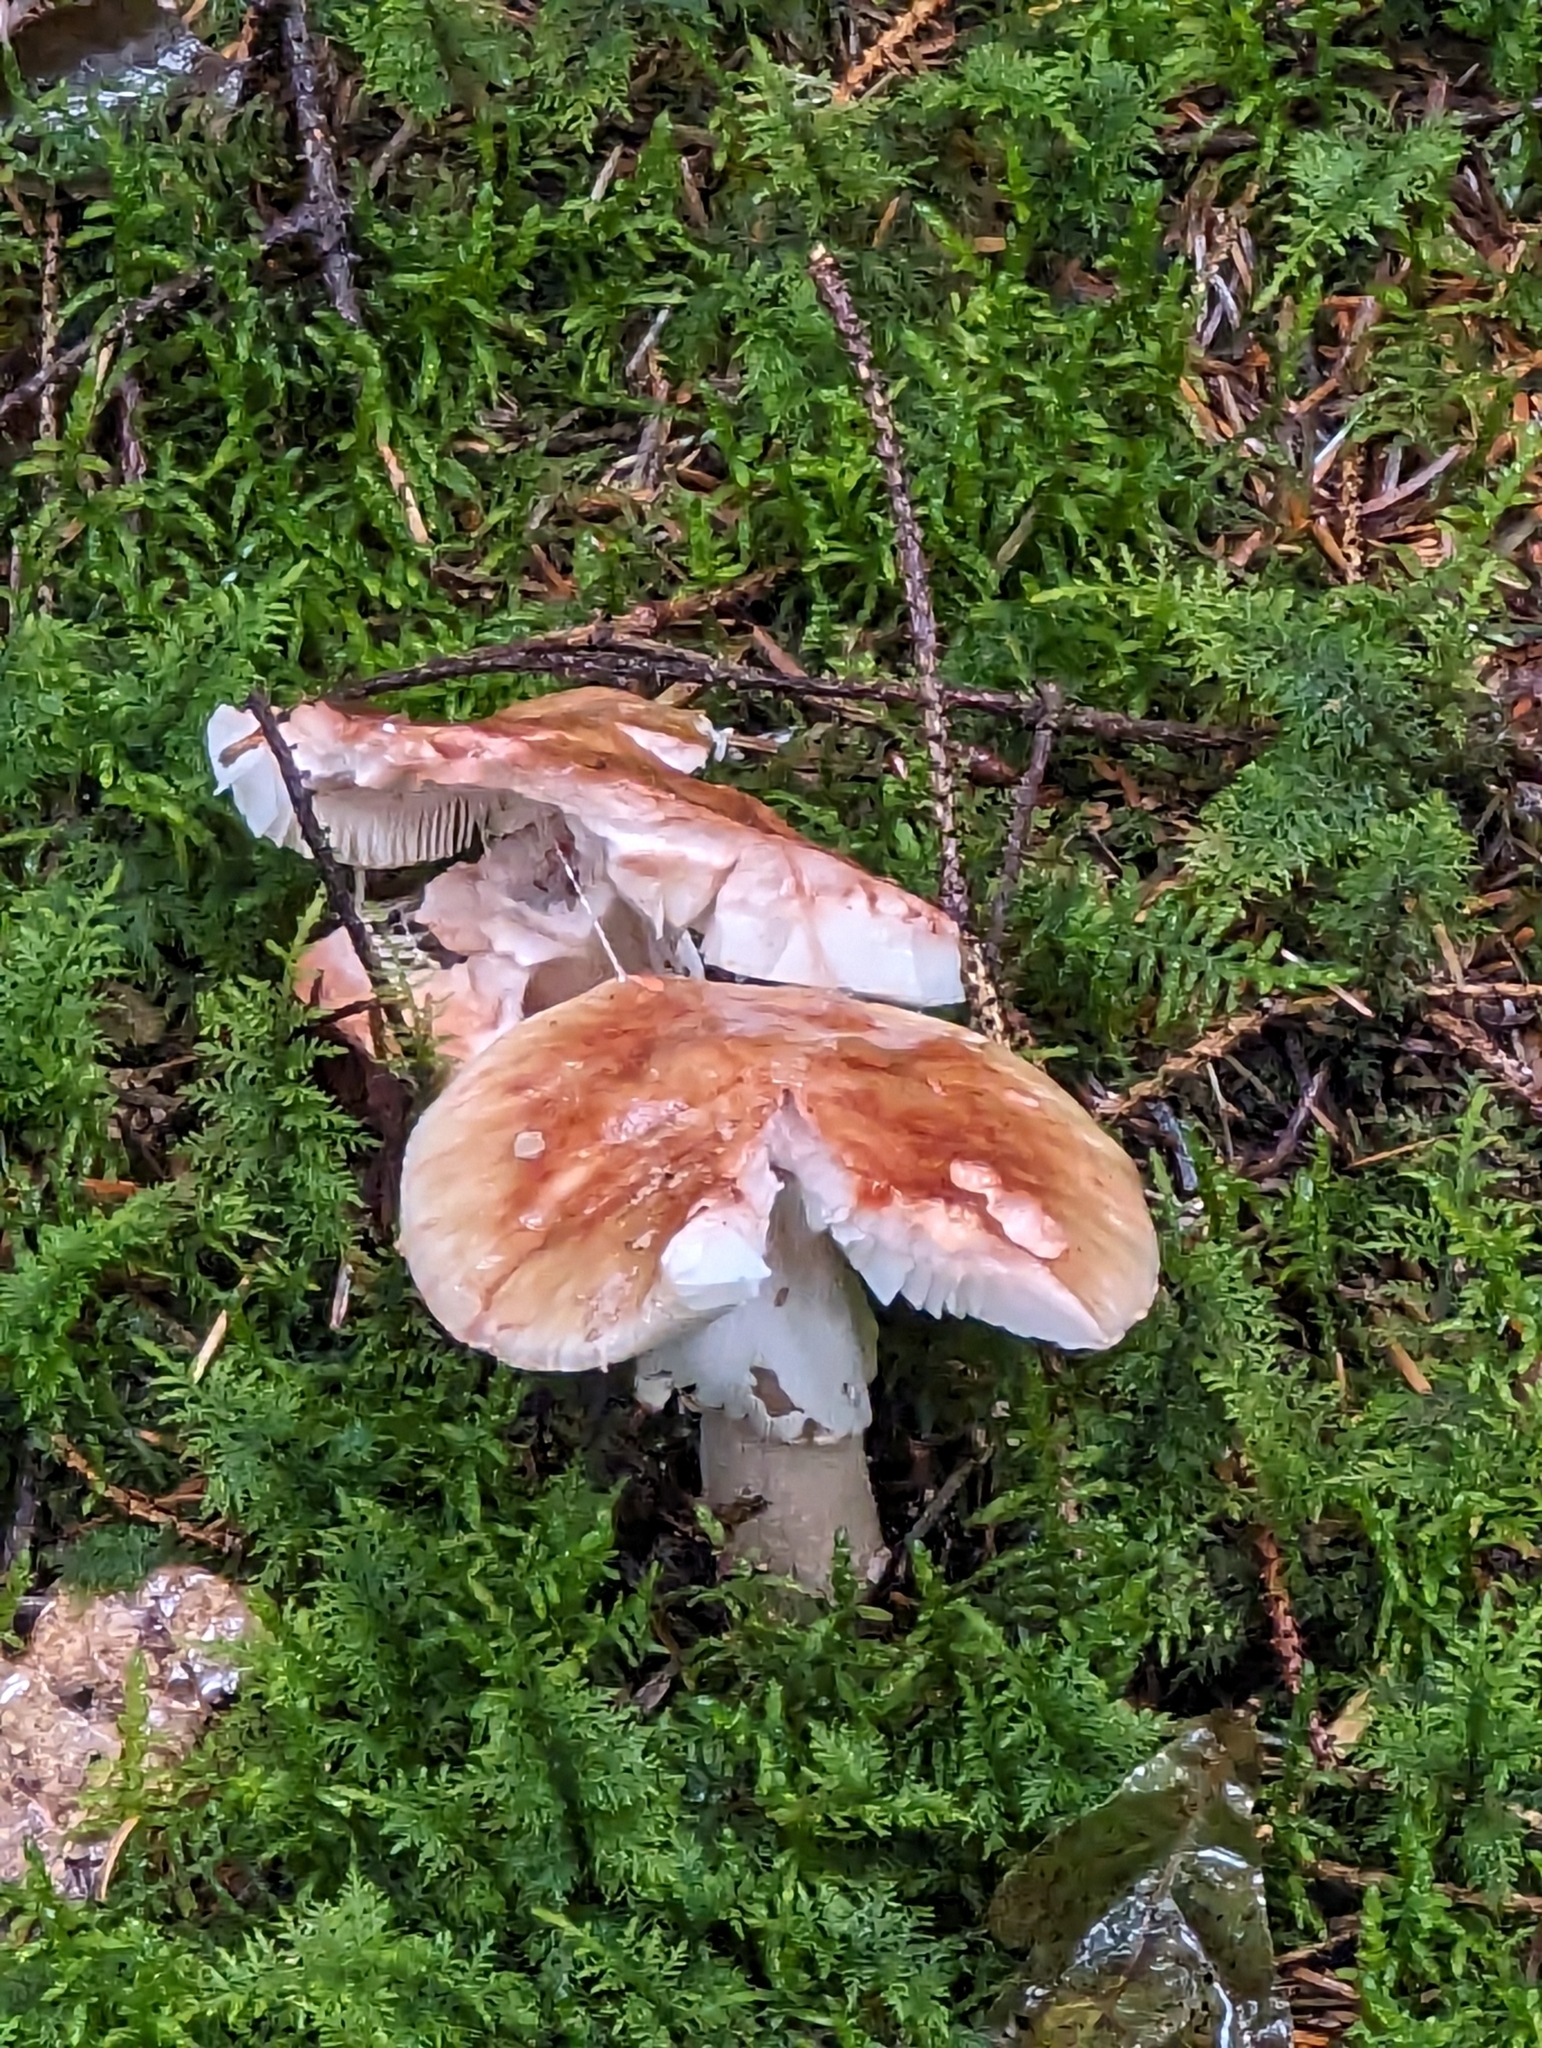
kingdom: Fungi
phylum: Basidiomycota
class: Agaricomycetes
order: Agaricales
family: Amanitaceae
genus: Amanita
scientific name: Amanita rubescens
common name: Blusher
